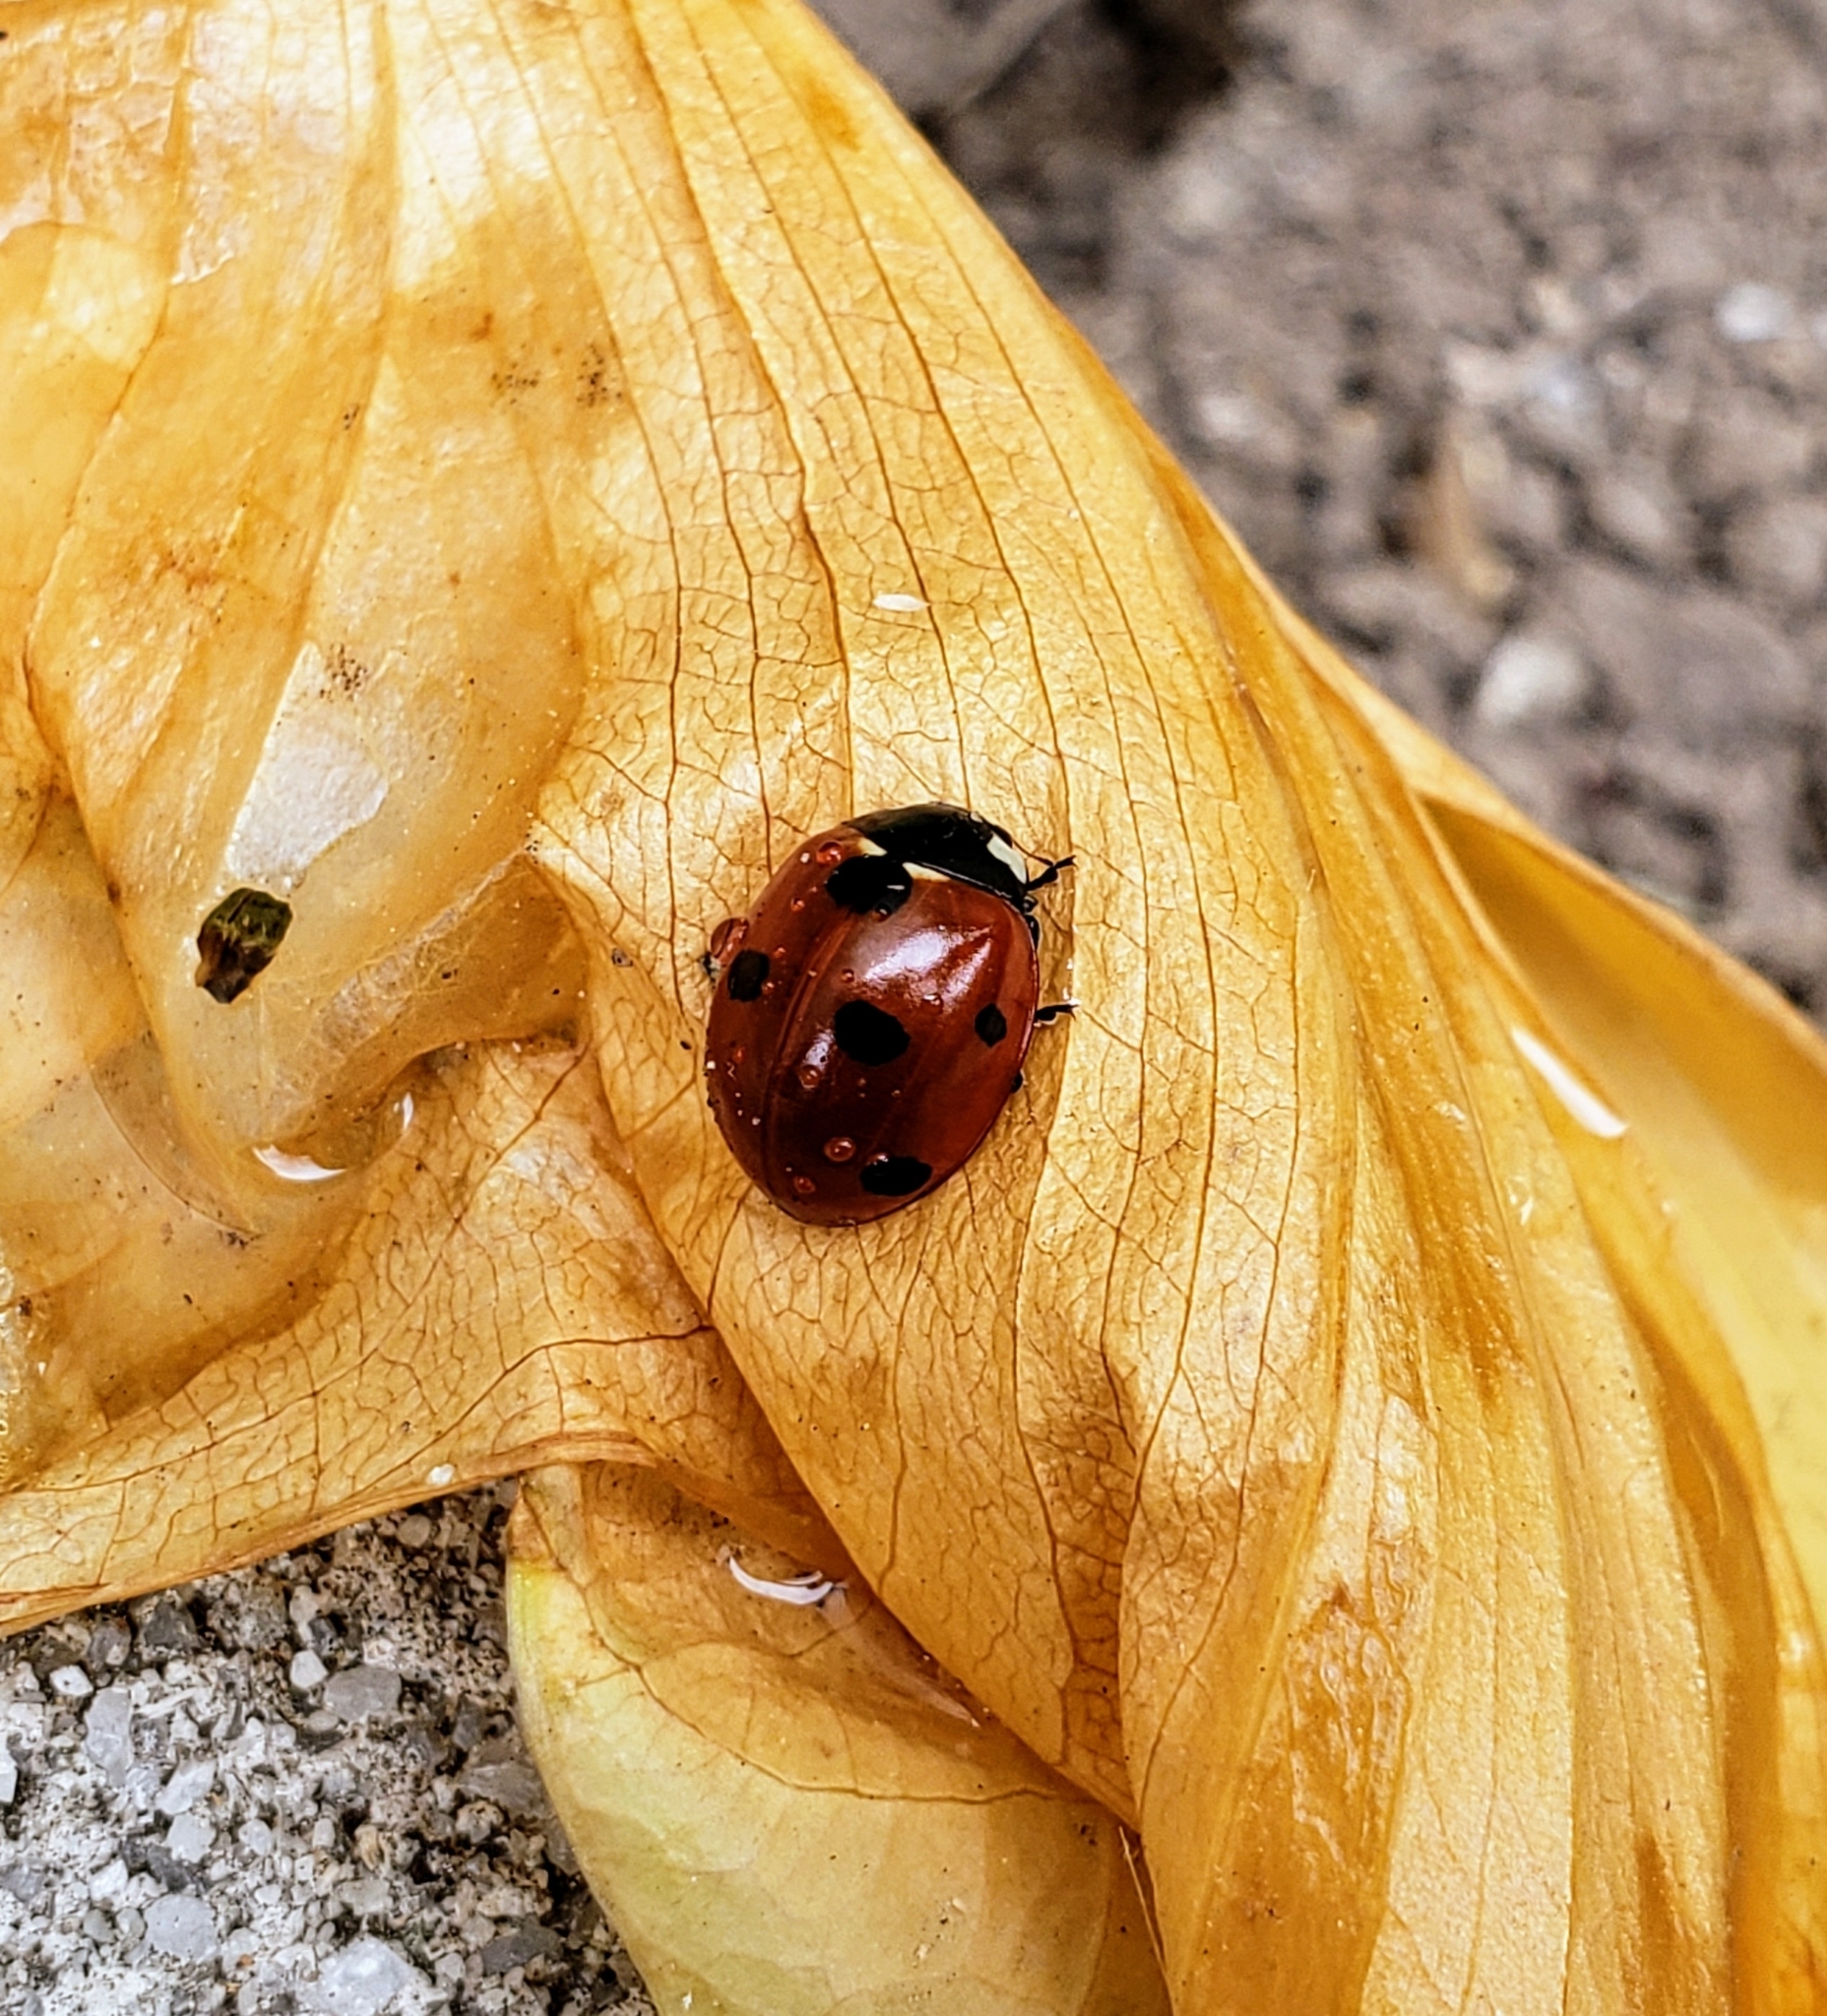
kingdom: Animalia
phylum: Arthropoda
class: Insecta
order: Coleoptera
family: Coccinellidae
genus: Coccinella
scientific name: Coccinella septempunctata
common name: Sevenspotted lady beetle
